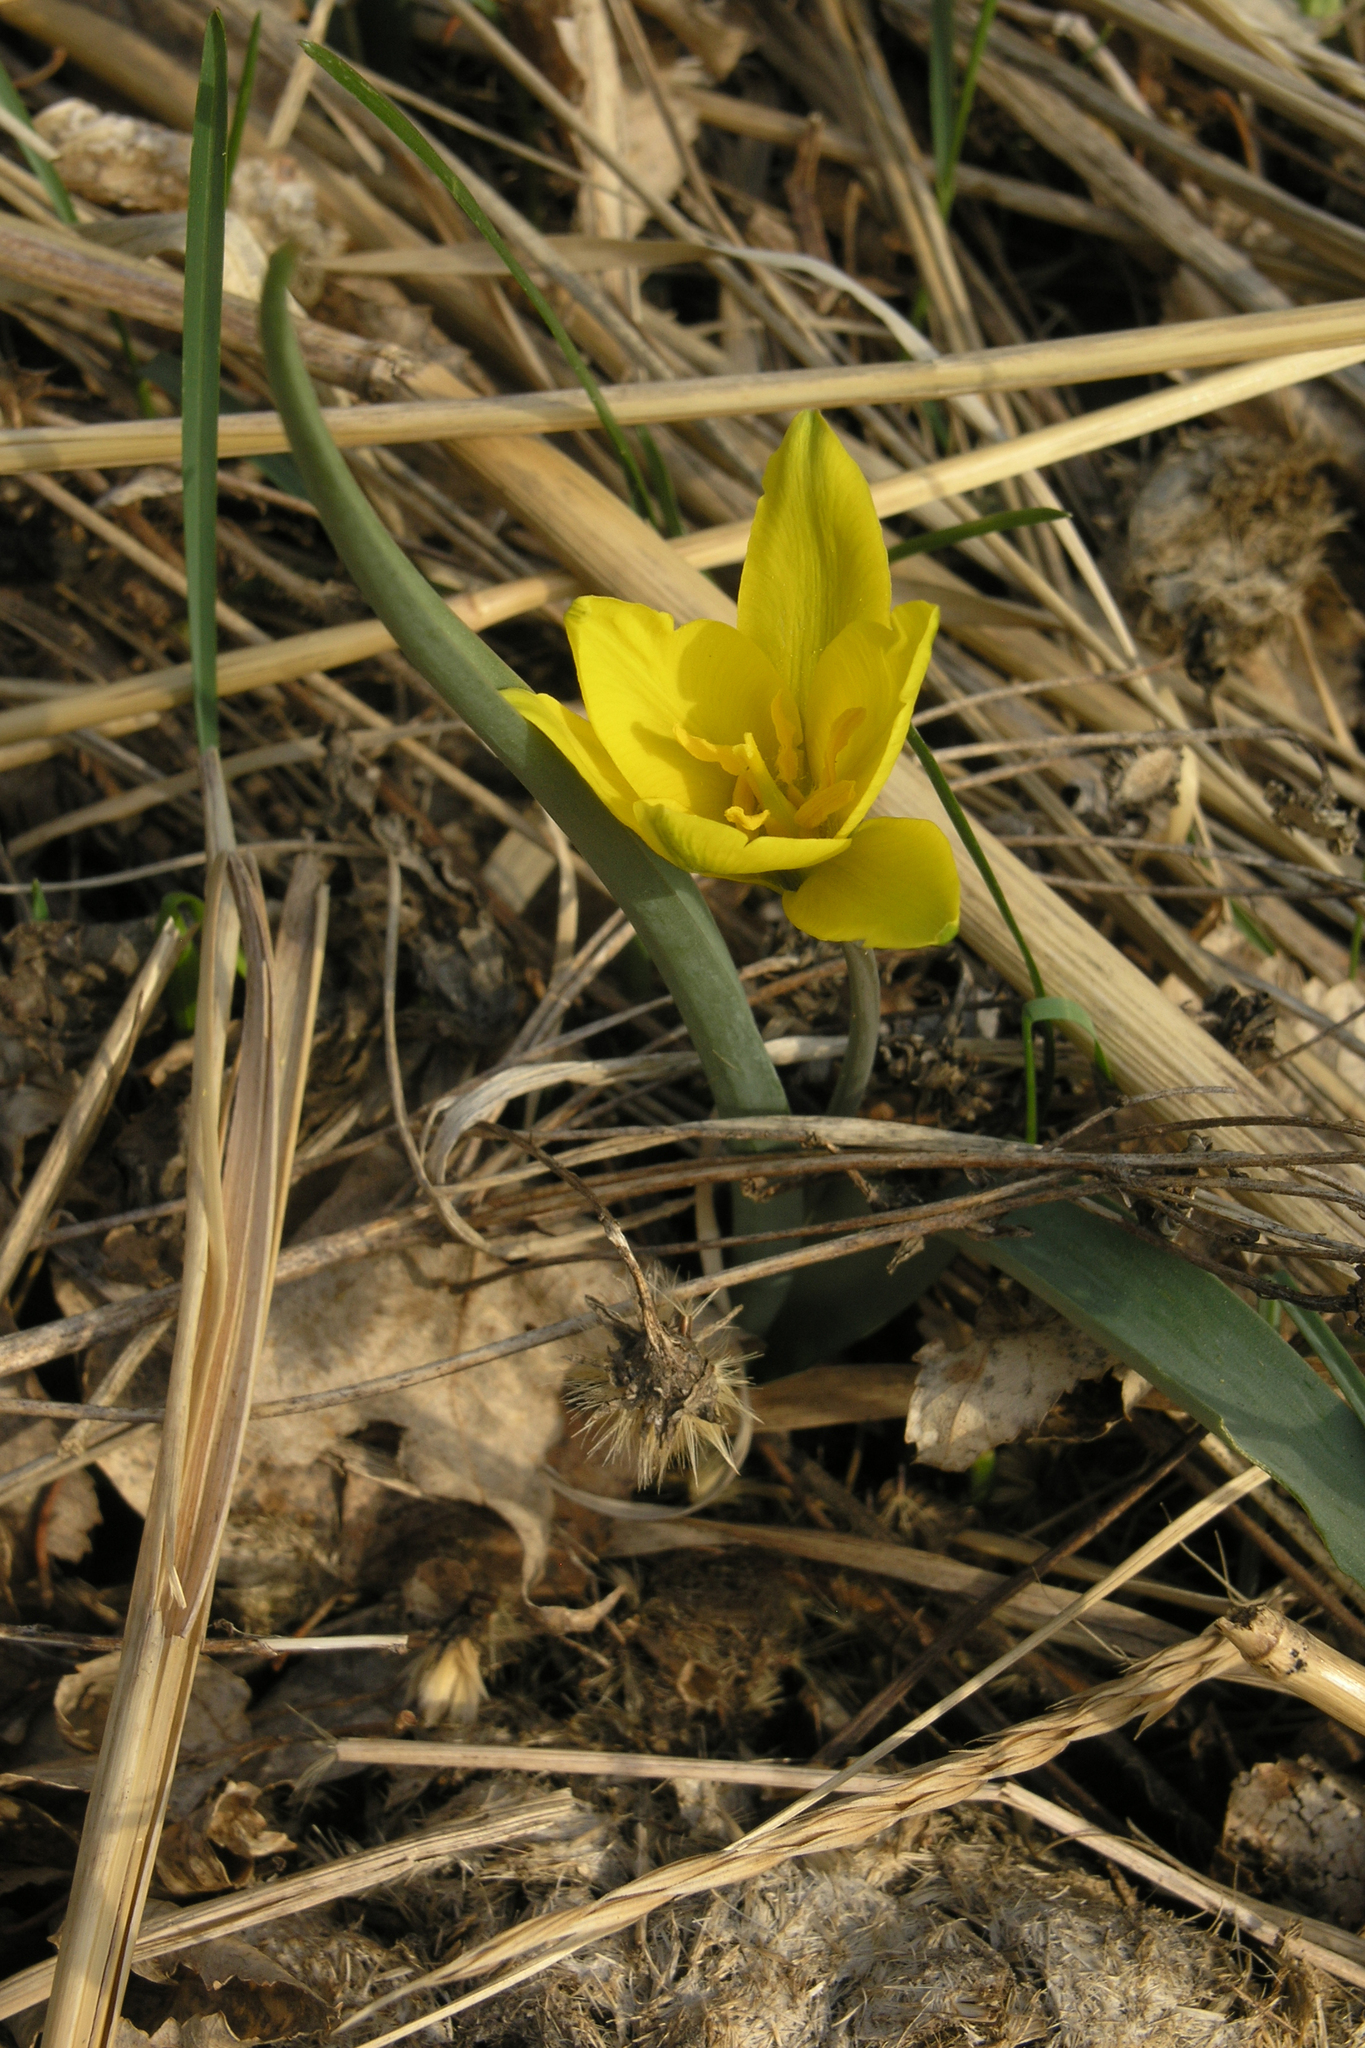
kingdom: Plantae
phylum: Tracheophyta
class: Liliopsida
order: Liliales
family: Liliaceae
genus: Tulipa
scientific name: Tulipa uniflora
